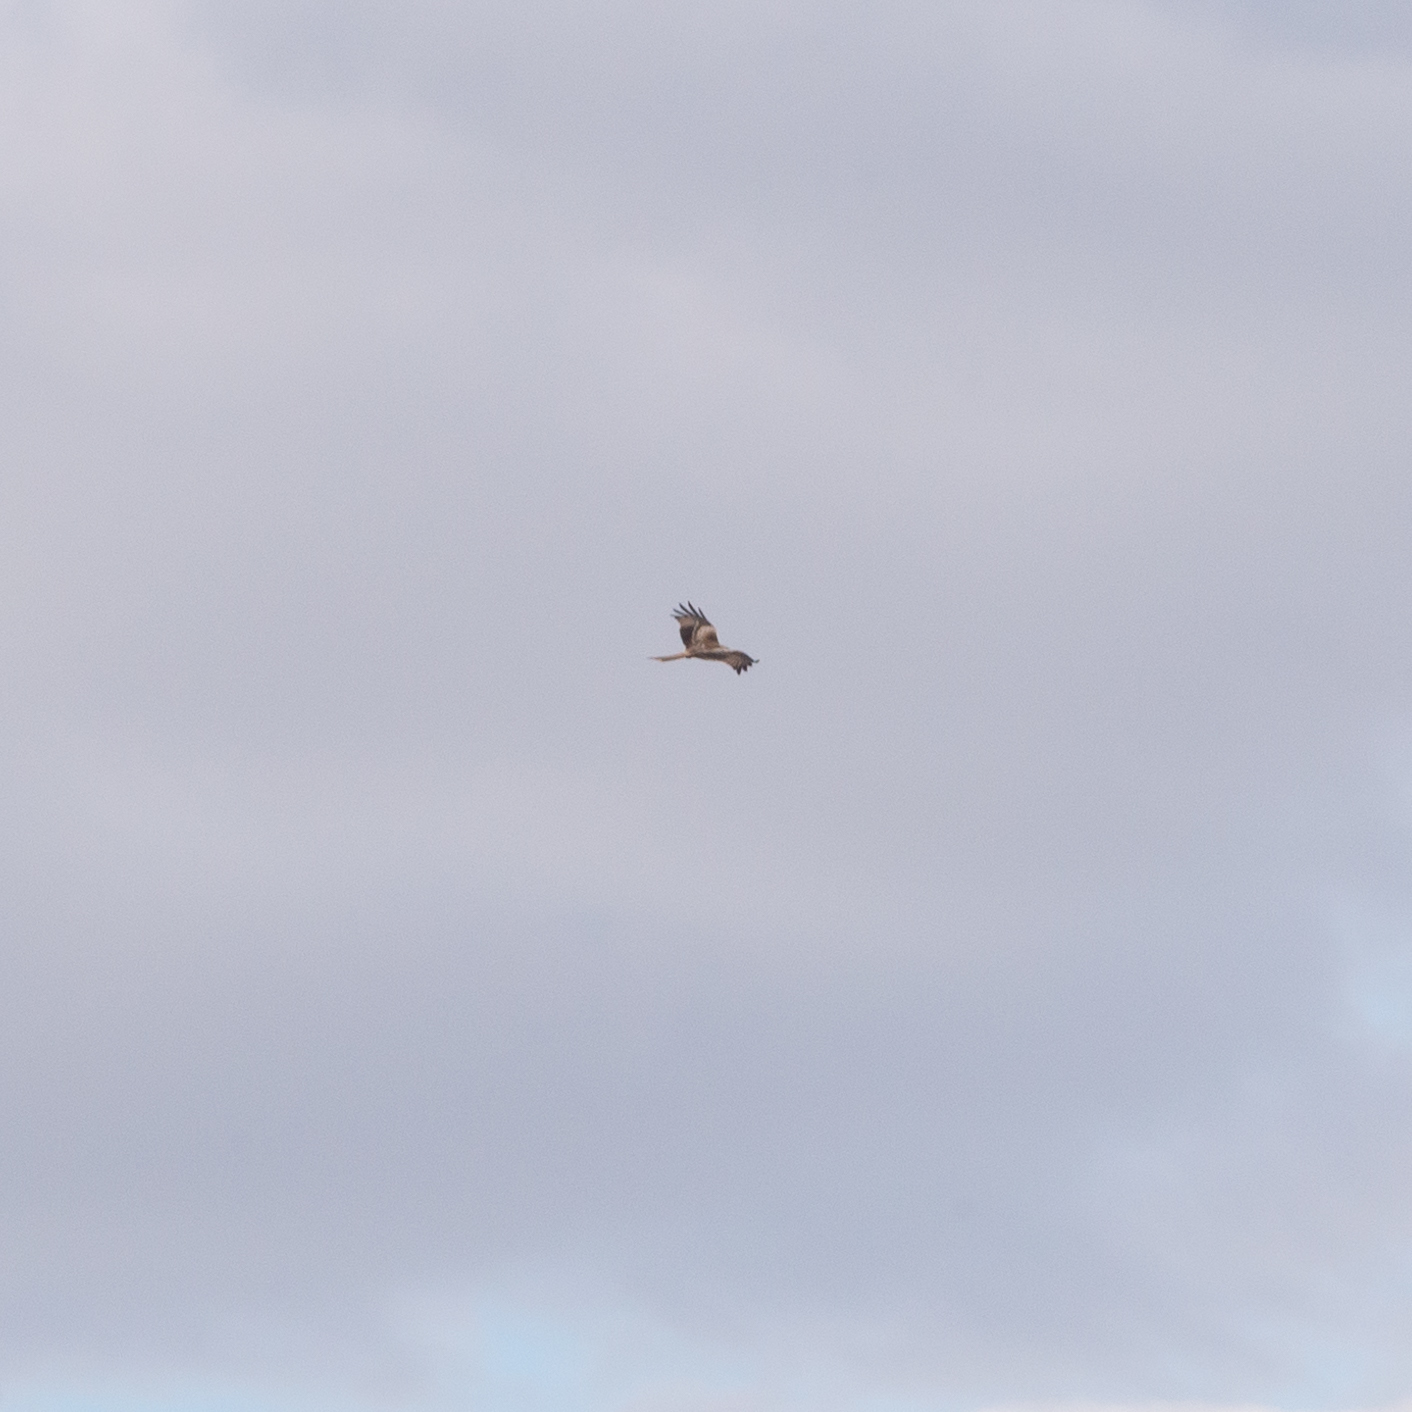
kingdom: Animalia
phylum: Chordata
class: Aves
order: Accipitriformes
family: Accipitridae
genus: Milvus
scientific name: Milvus milvus
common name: Red kite
